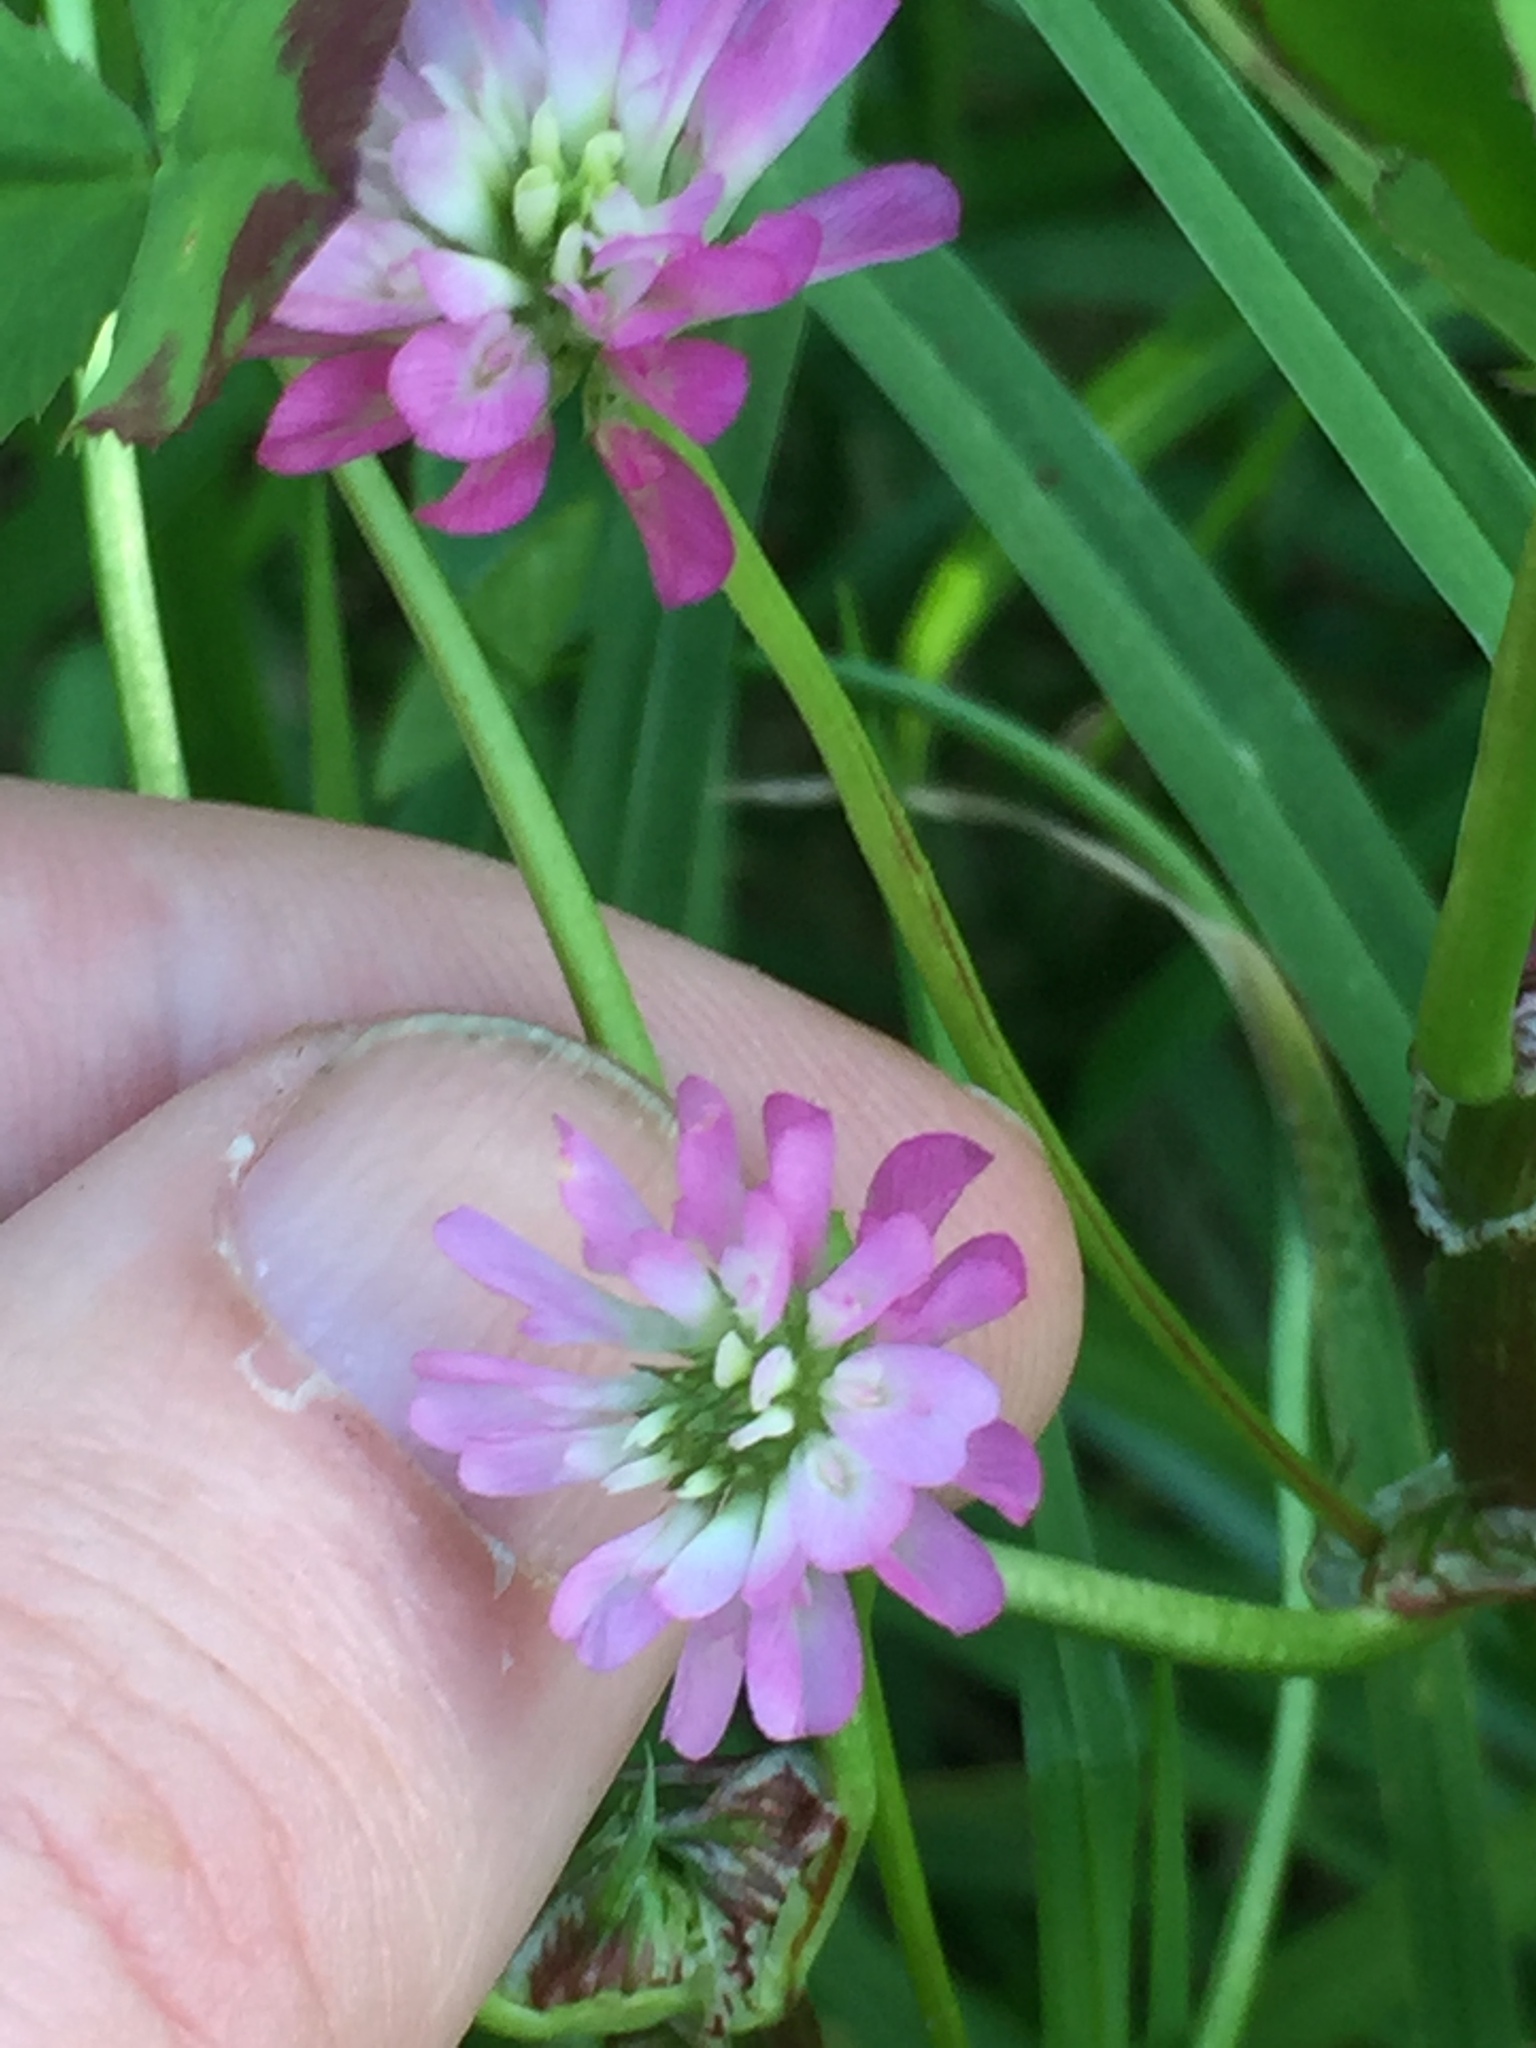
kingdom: Plantae
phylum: Tracheophyta
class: Magnoliopsida
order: Fabales
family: Fabaceae
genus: Trifolium
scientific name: Trifolium resupinatum
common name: Reversed clover
